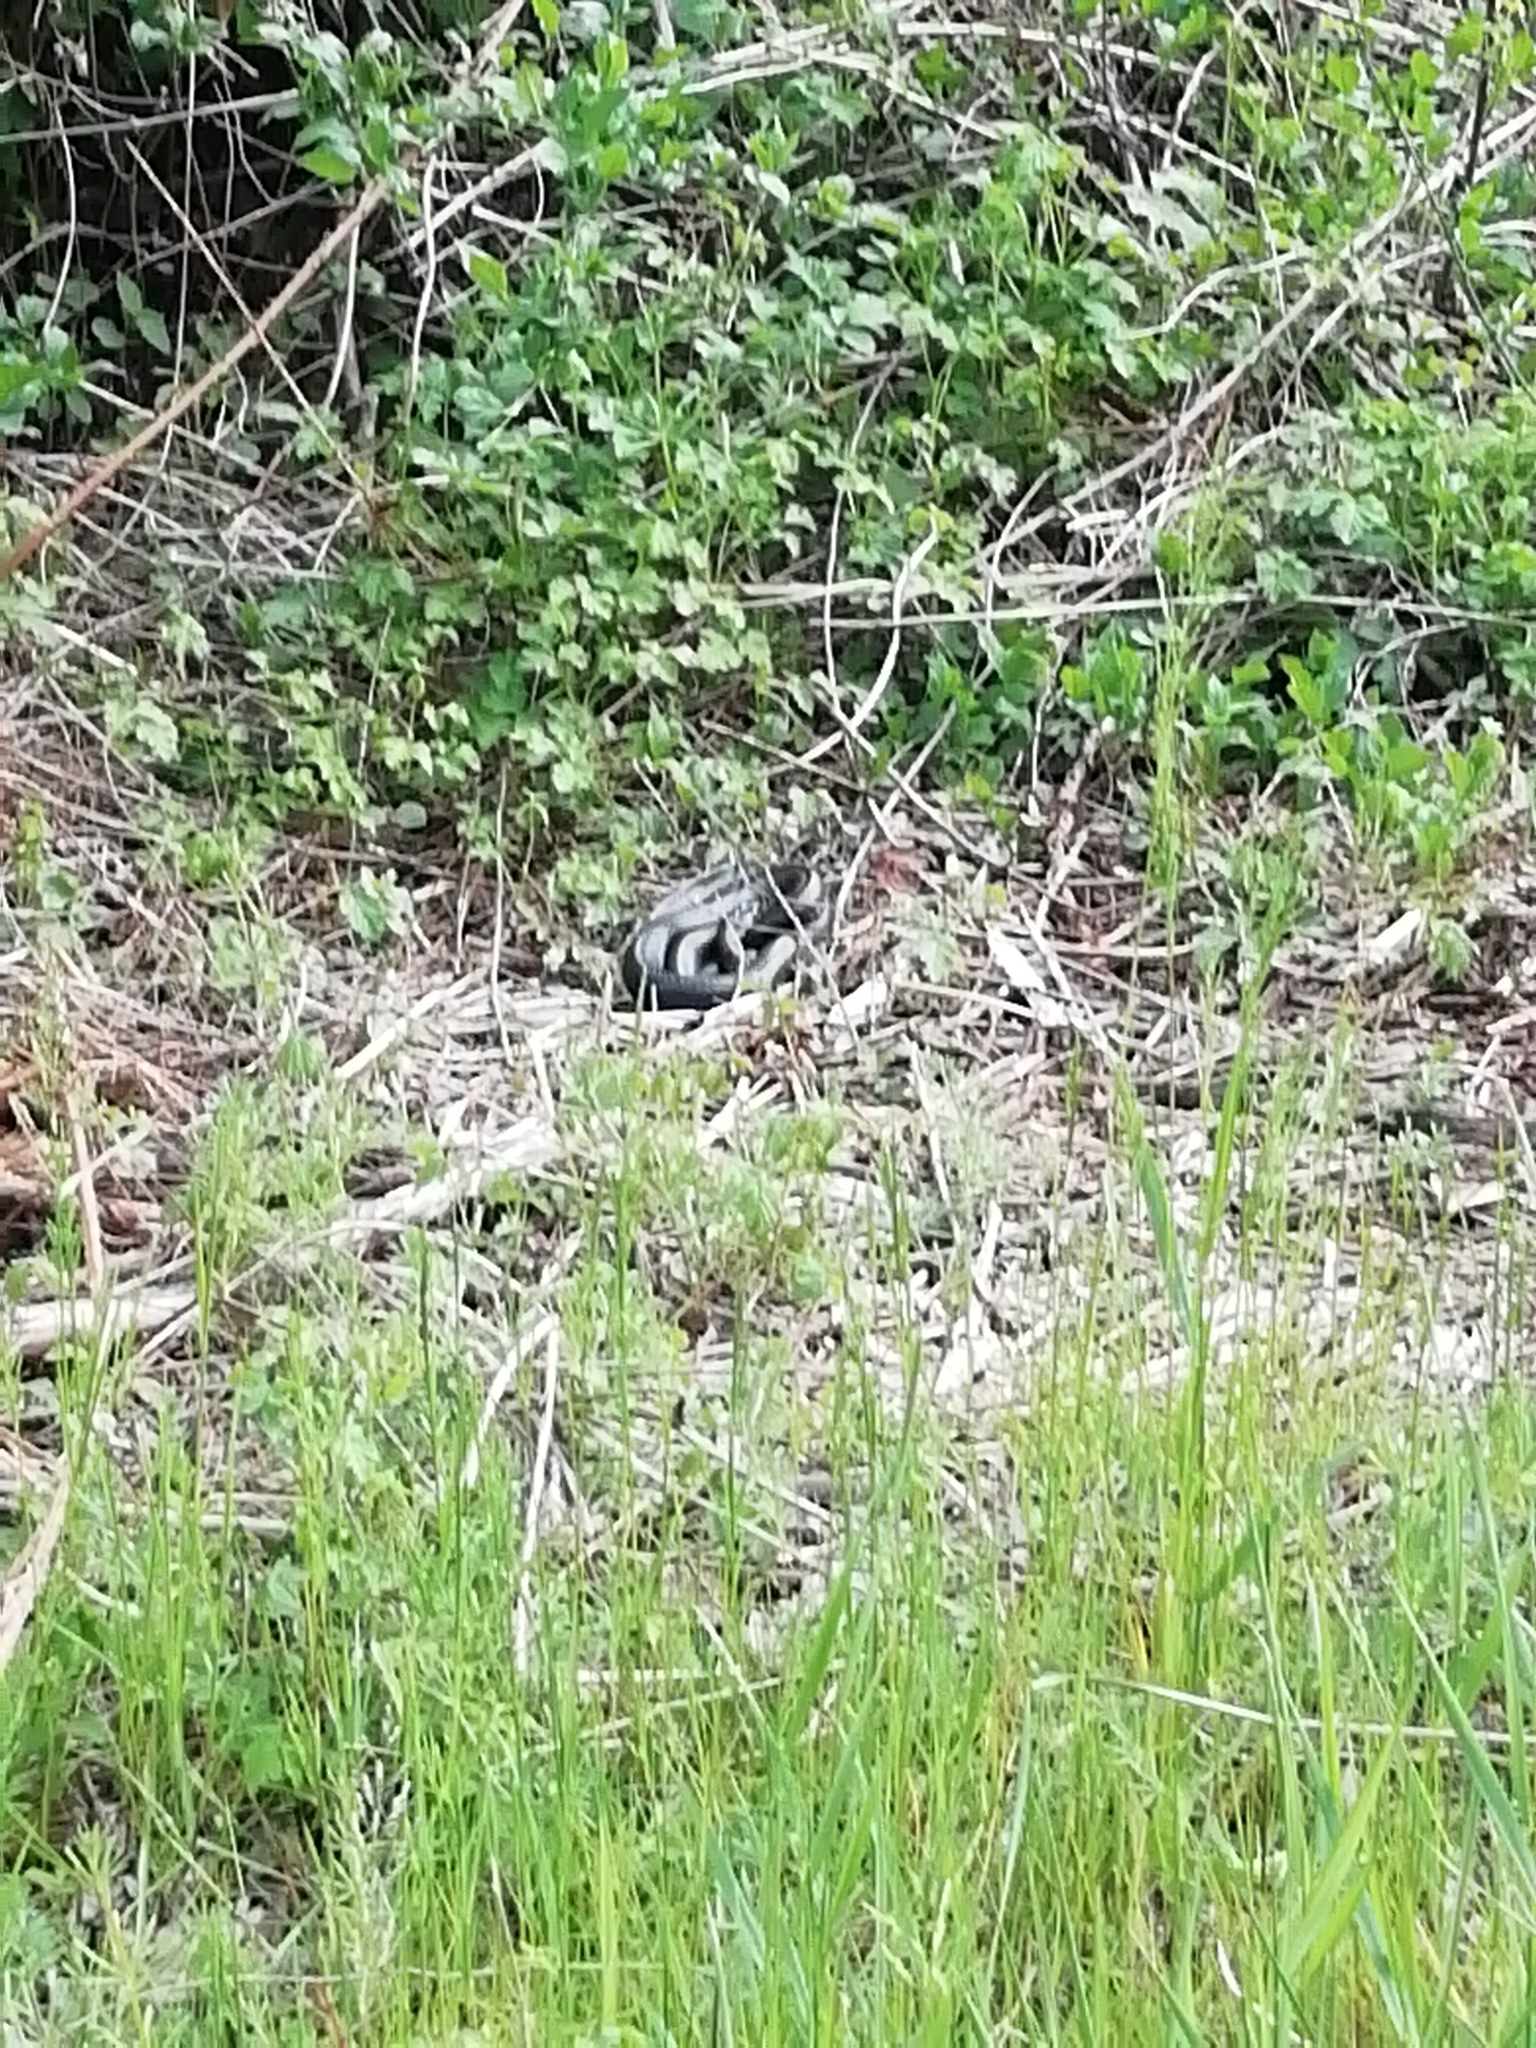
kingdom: Animalia
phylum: Chordata
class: Squamata
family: Colubridae
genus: Hierophis
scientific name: Hierophis viridiflavus
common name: Green whip snake
